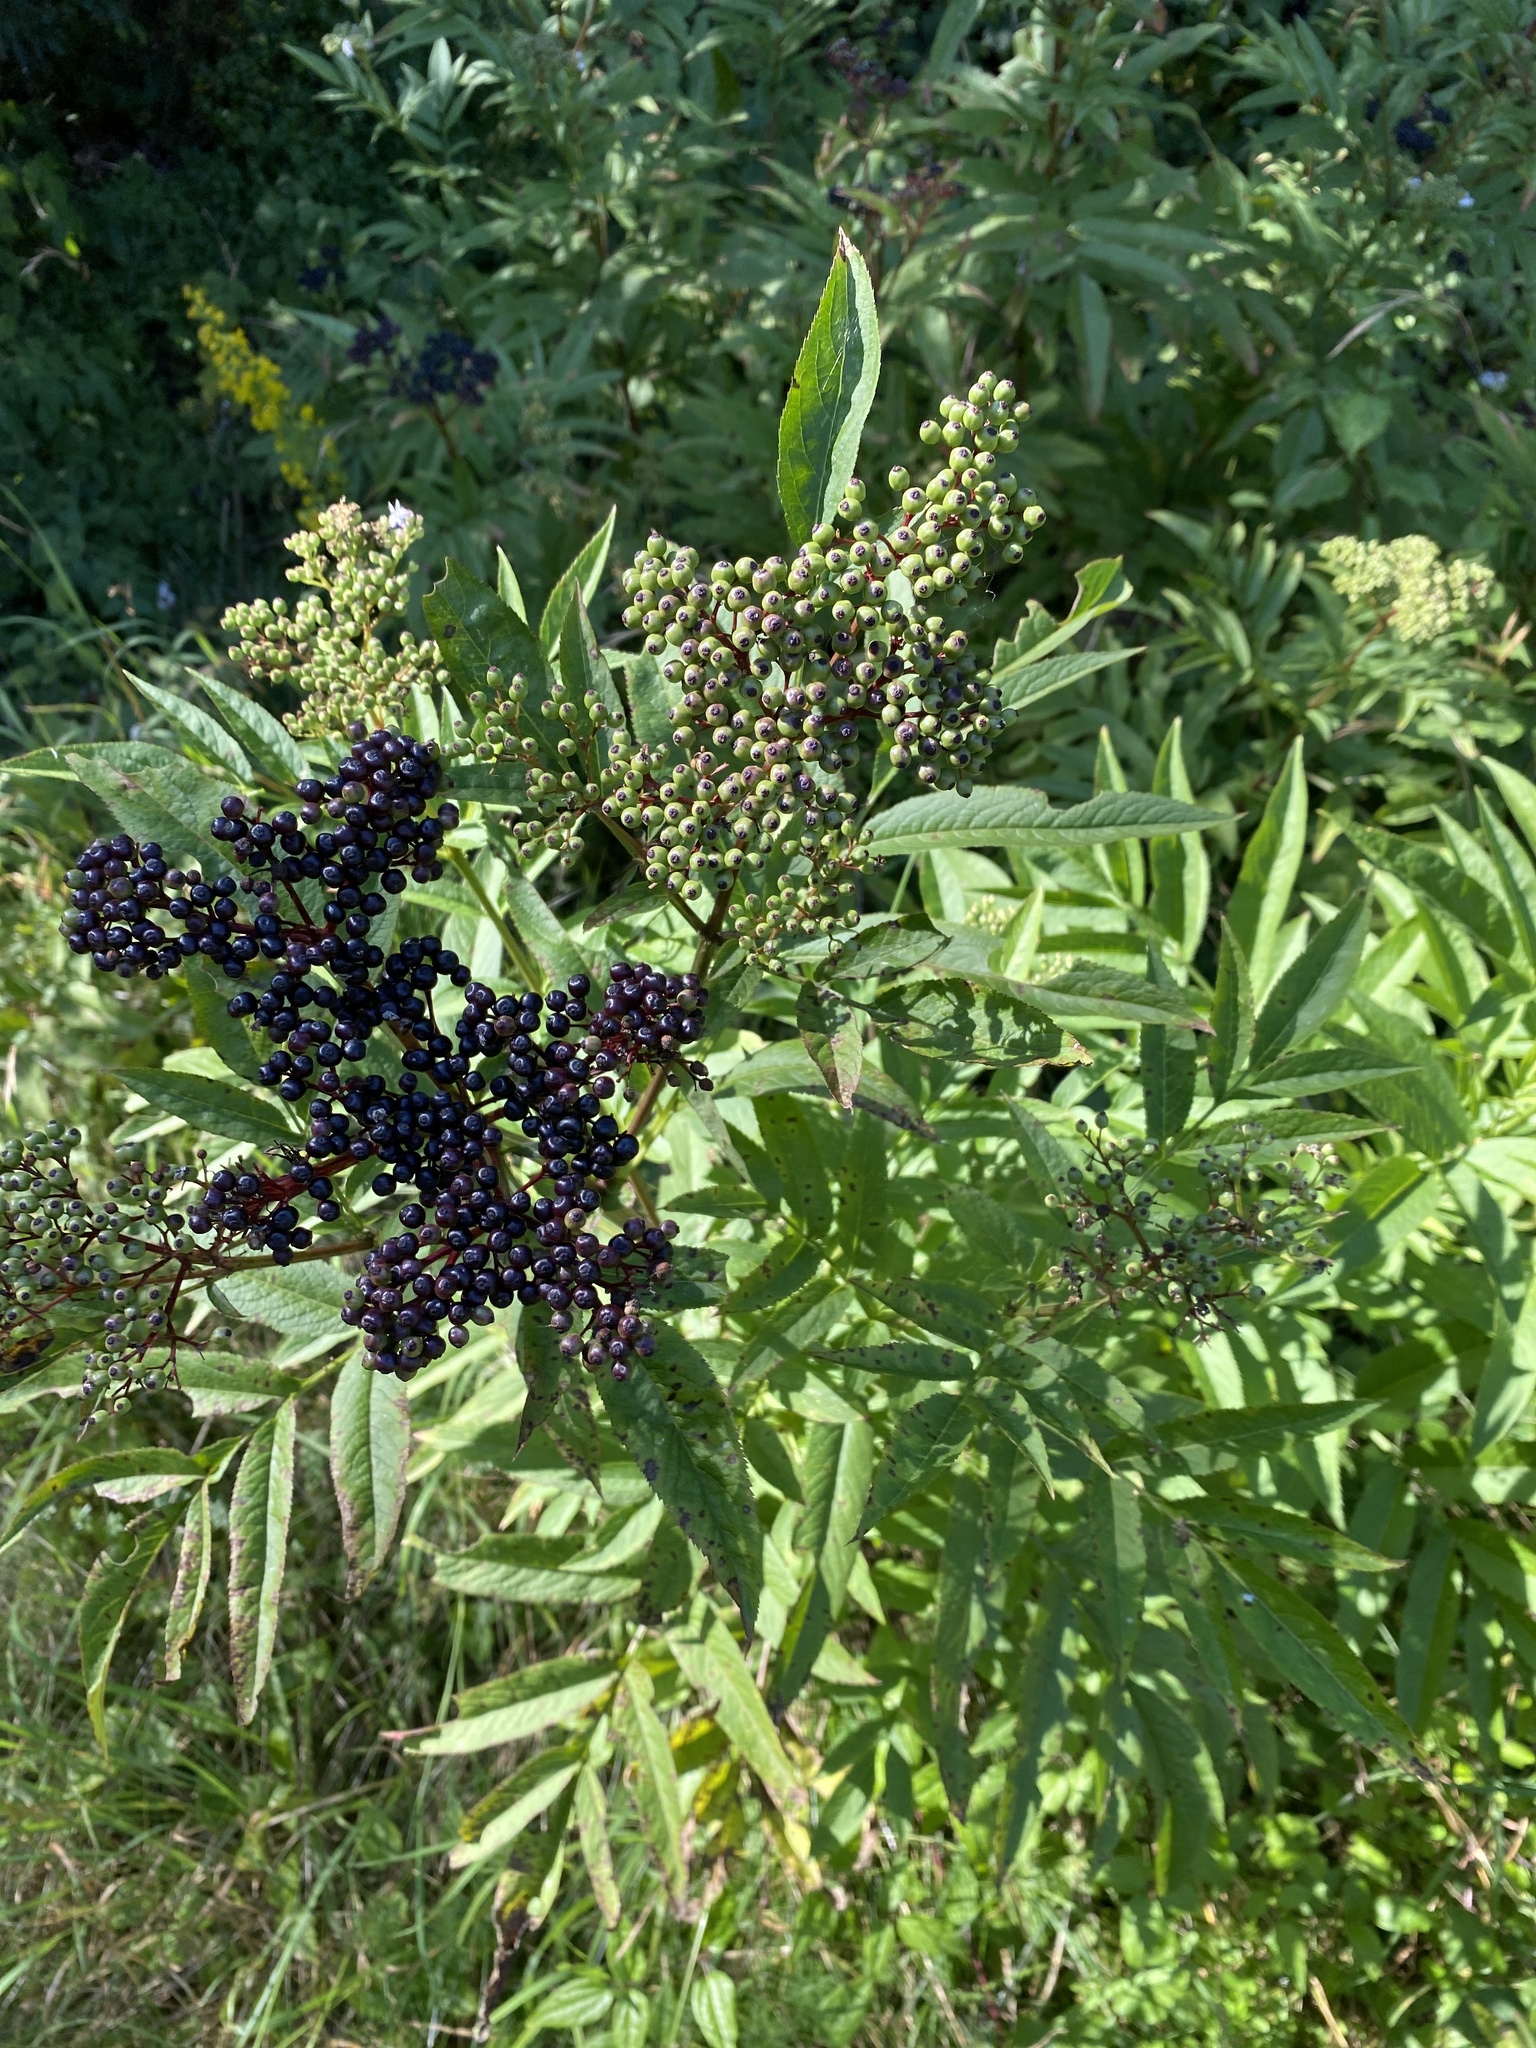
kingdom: Plantae
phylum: Tracheophyta
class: Magnoliopsida
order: Dipsacales
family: Viburnaceae
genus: Sambucus
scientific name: Sambucus ebulus
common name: Dwarf elder
